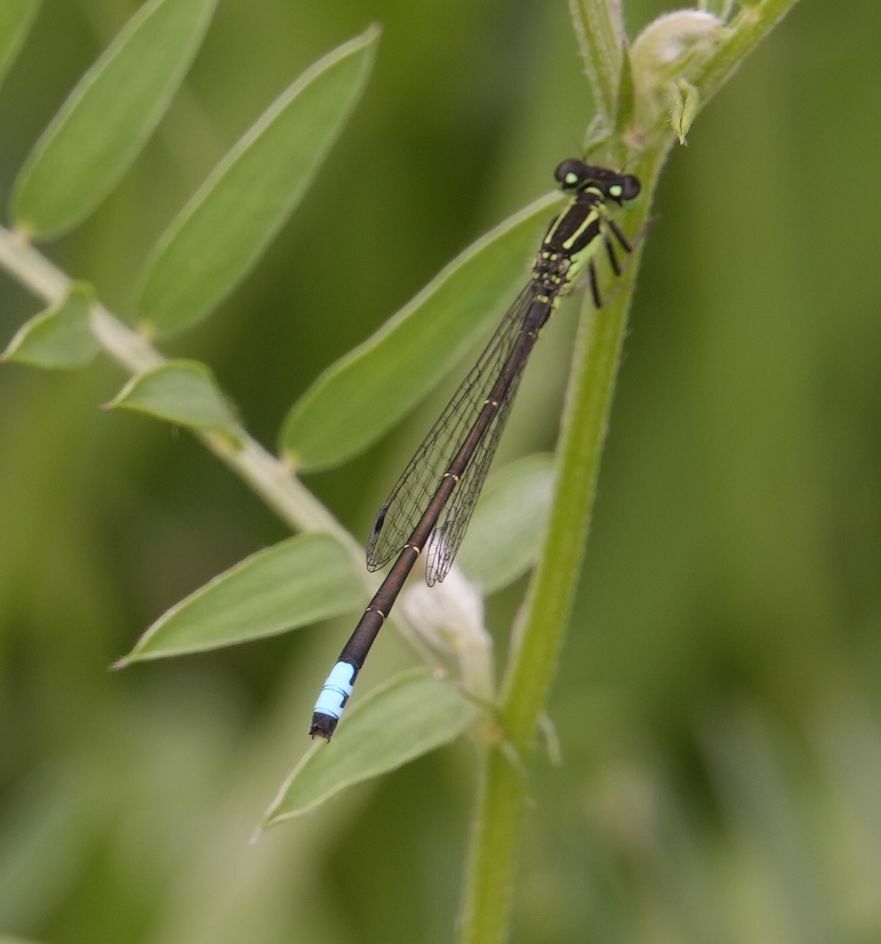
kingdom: Animalia
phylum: Arthropoda
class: Insecta
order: Odonata
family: Coenagrionidae
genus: Ischnura
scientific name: Ischnura verticalis
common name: Eastern forktail
